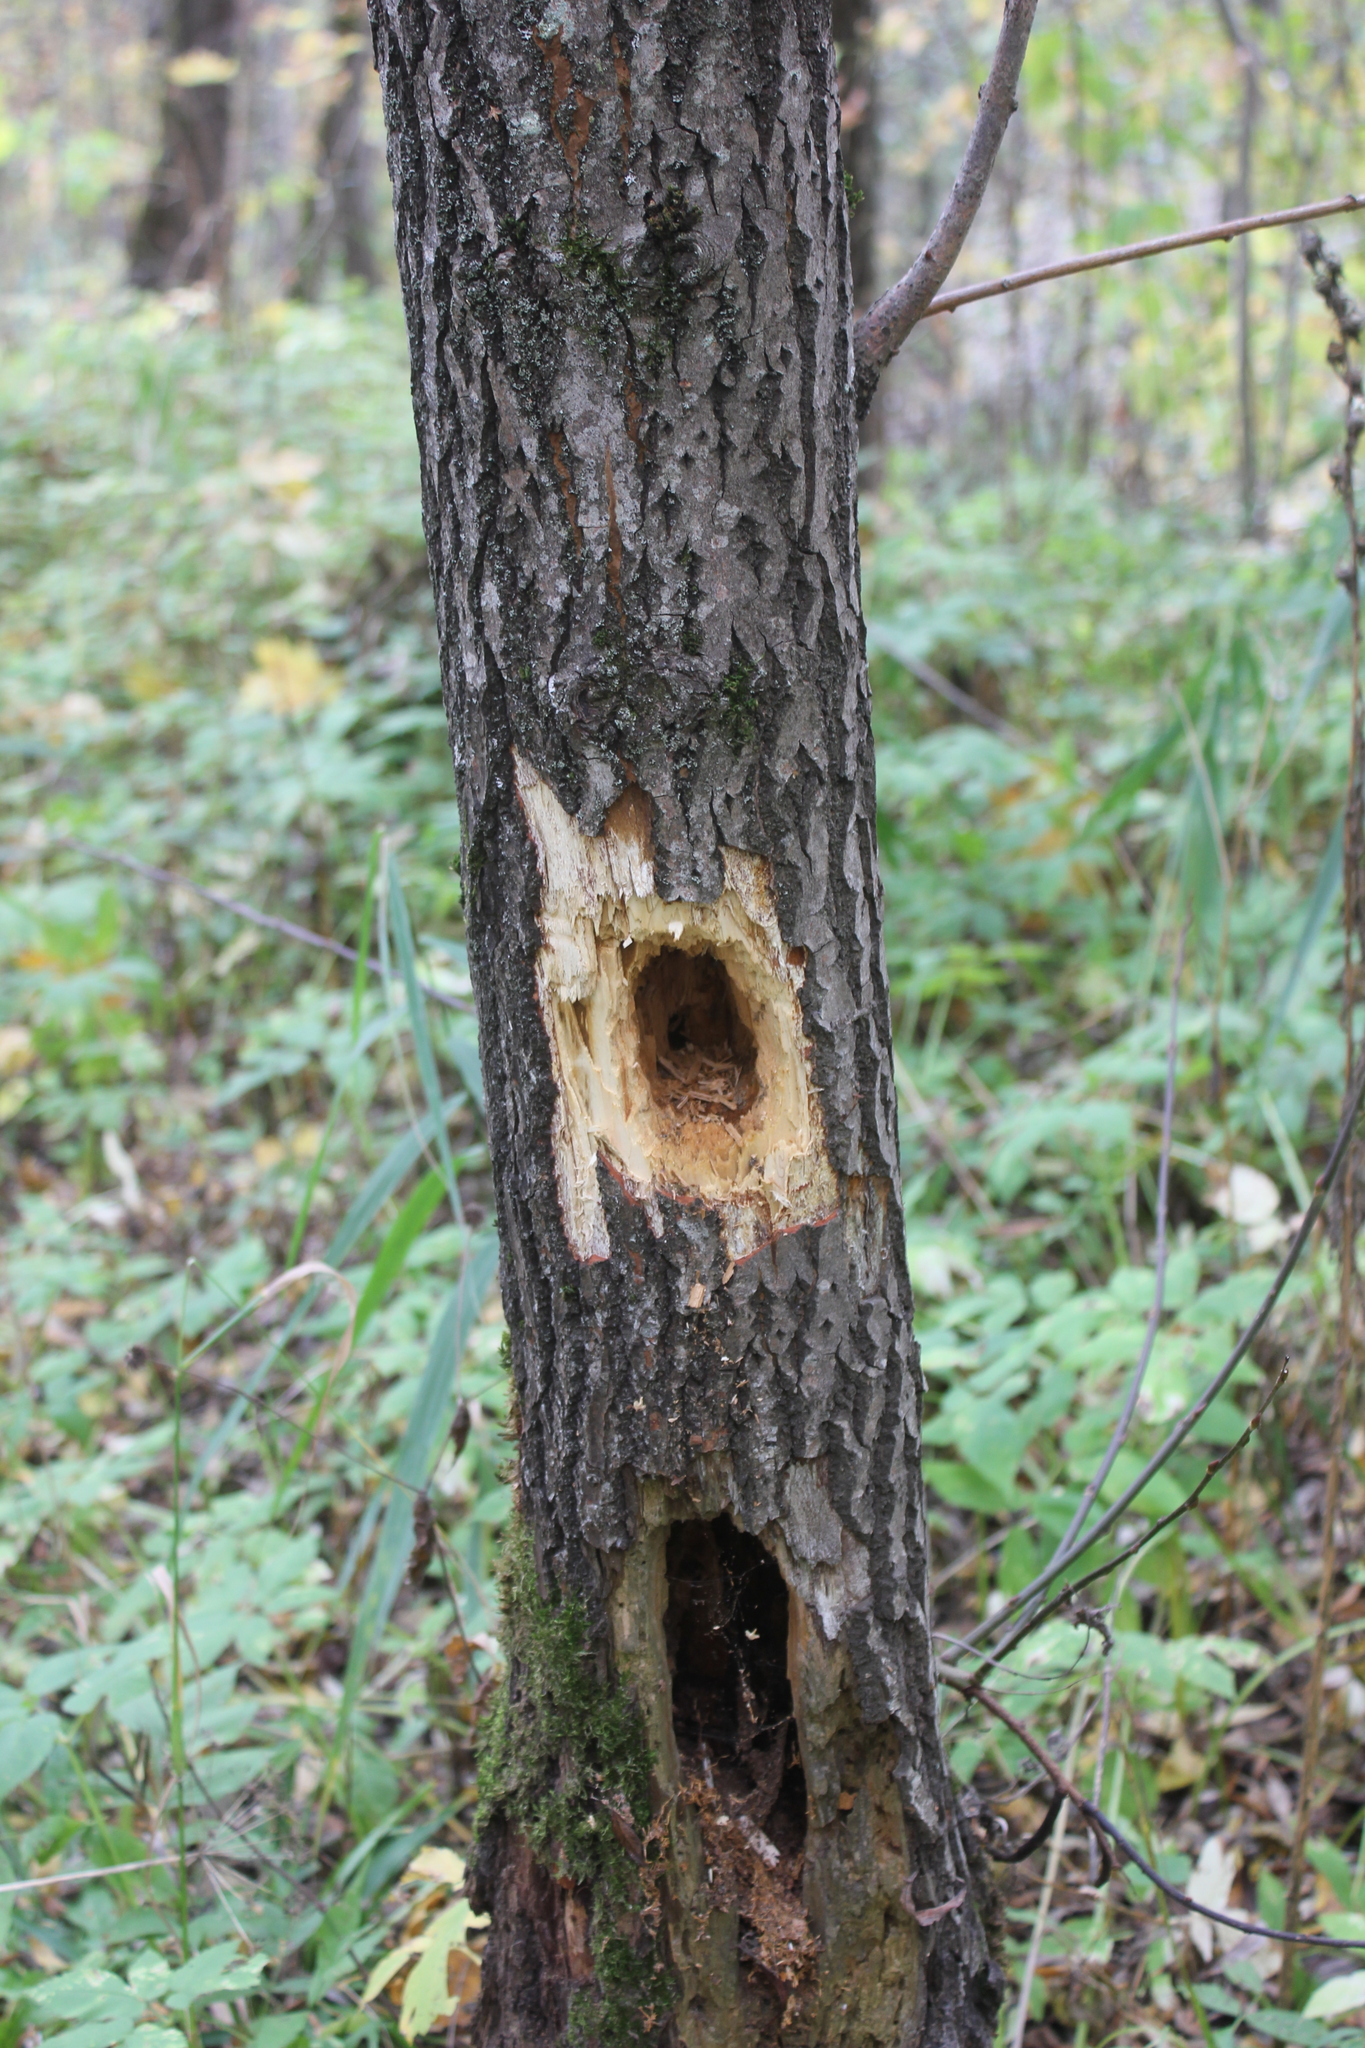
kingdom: Animalia
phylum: Chordata
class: Aves
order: Piciformes
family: Picidae
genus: Dryocopus
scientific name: Dryocopus martius
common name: Black woodpecker
